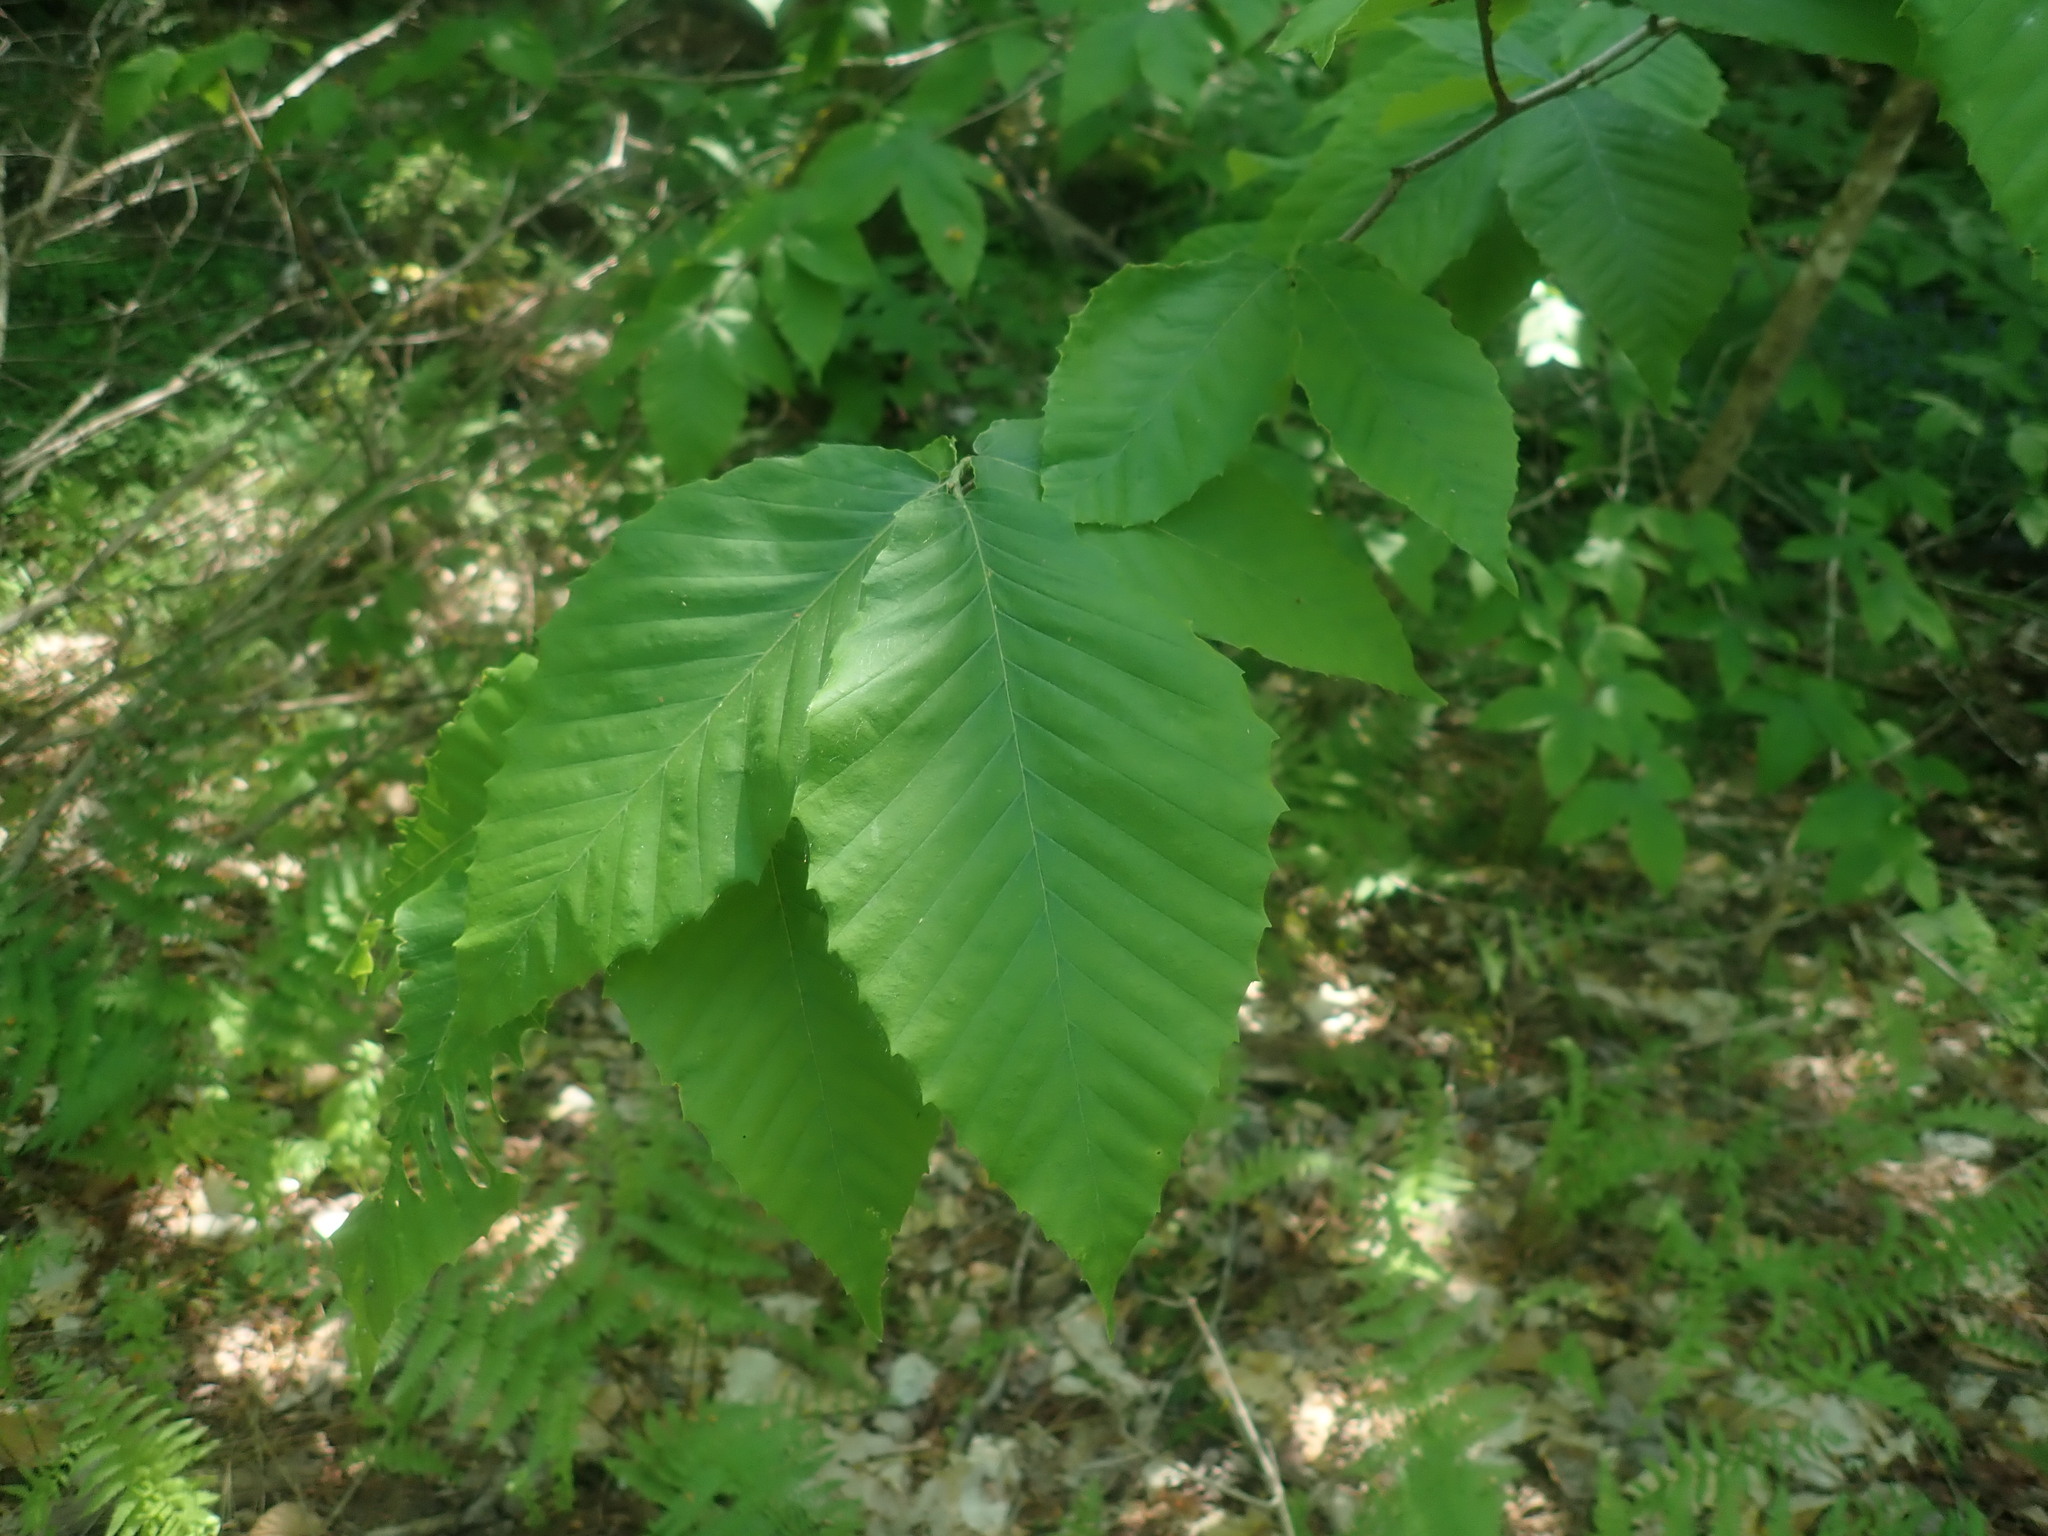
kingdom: Plantae
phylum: Tracheophyta
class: Magnoliopsida
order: Fagales
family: Fagaceae
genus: Fagus
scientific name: Fagus grandifolia
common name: American beech
